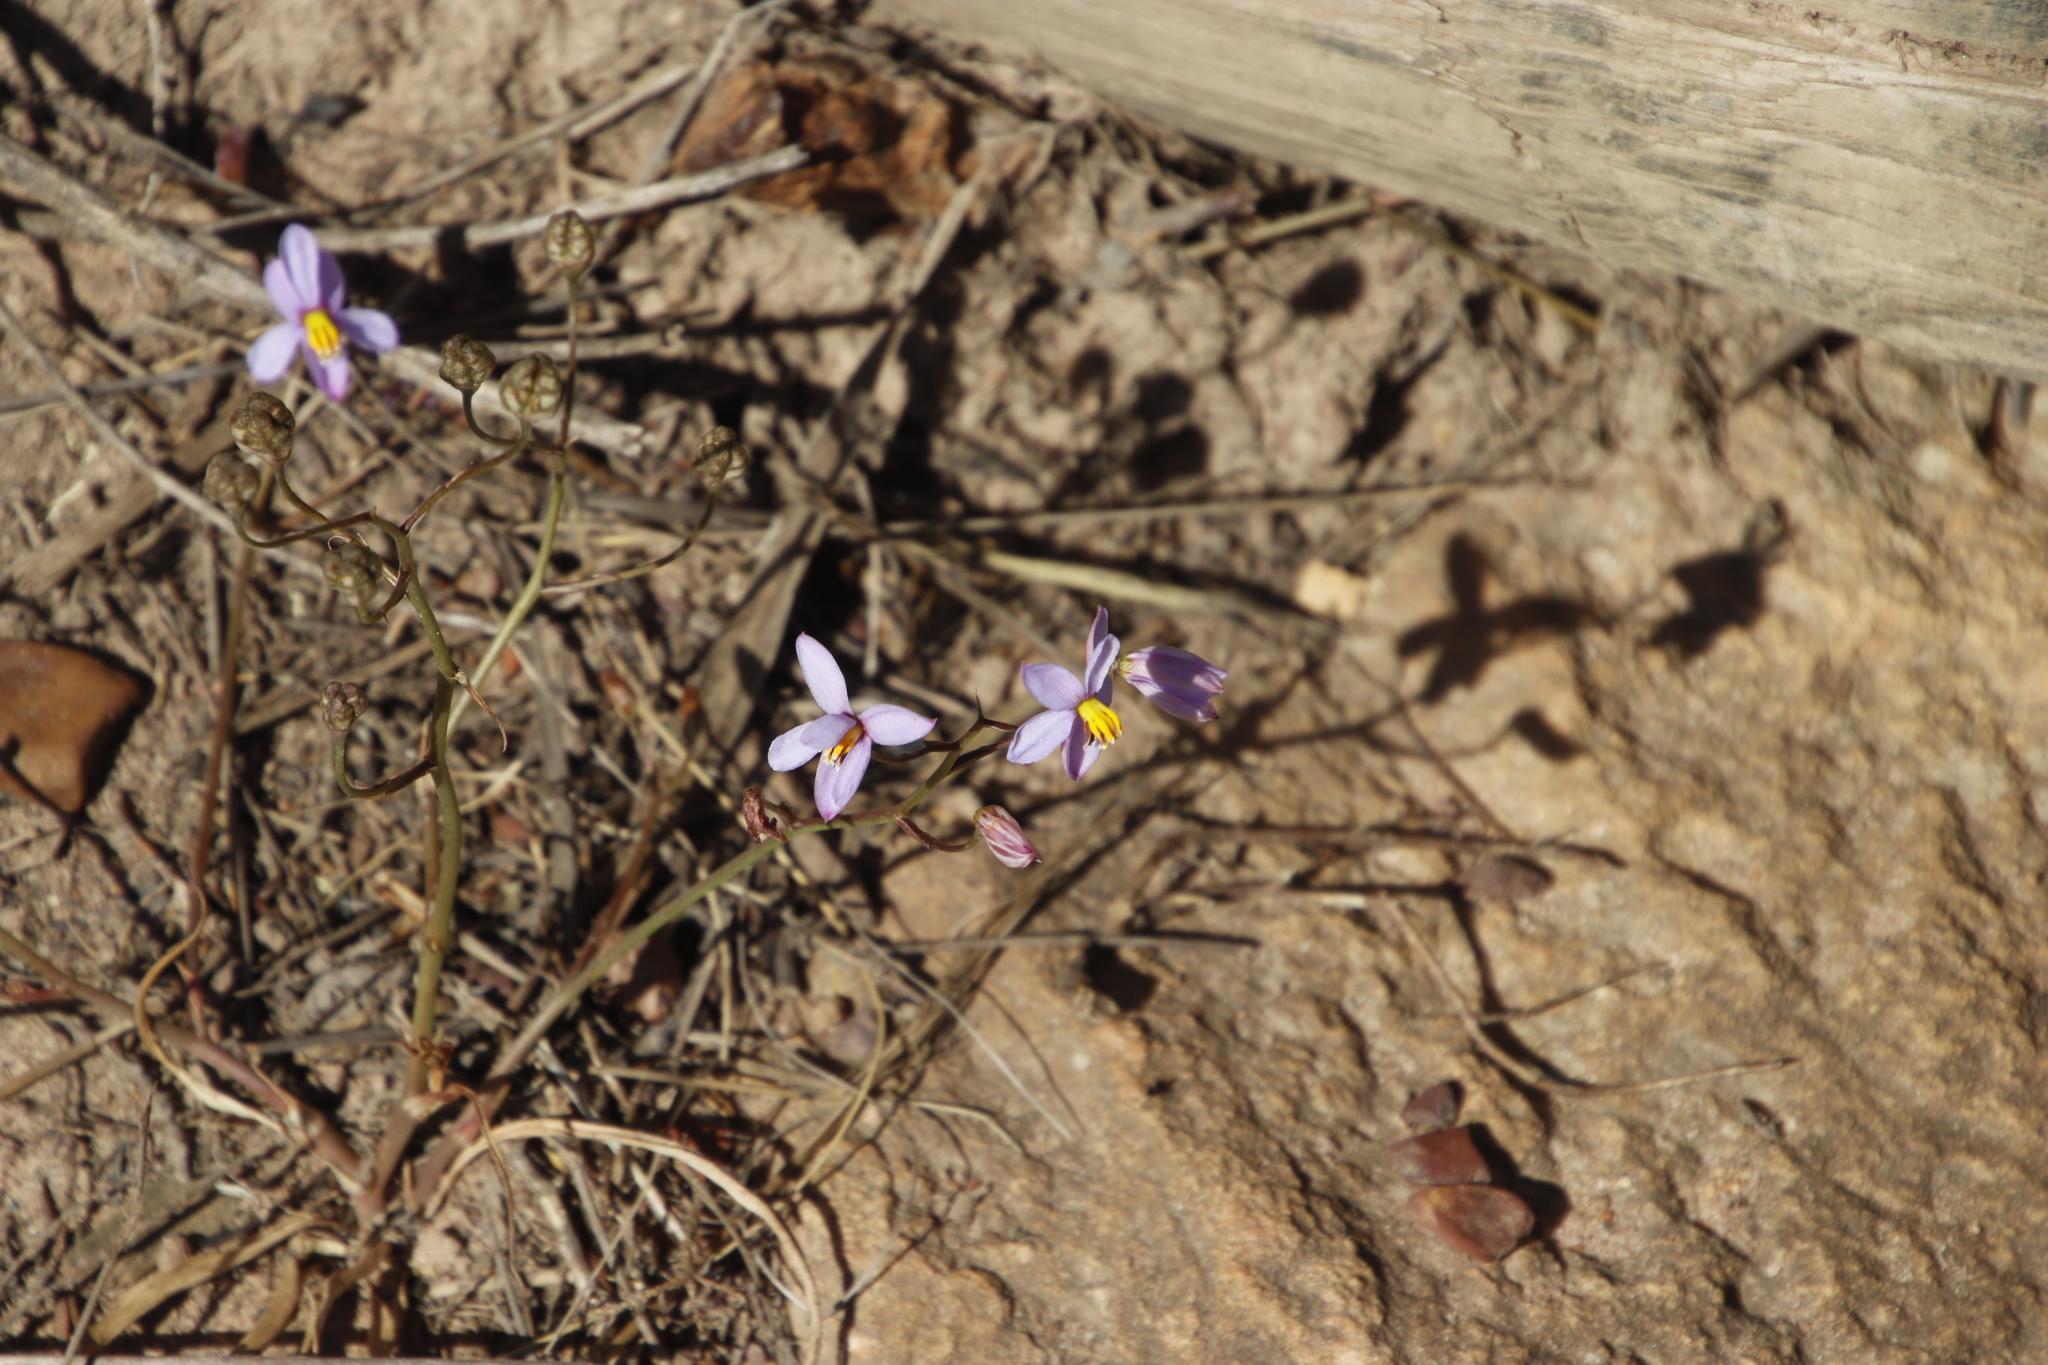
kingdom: Plantae
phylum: Tracheophyta
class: Liliopsida
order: Asparagales
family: Tecophilaeaceae
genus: Cyanella
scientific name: Cyanella hyacinthoides
